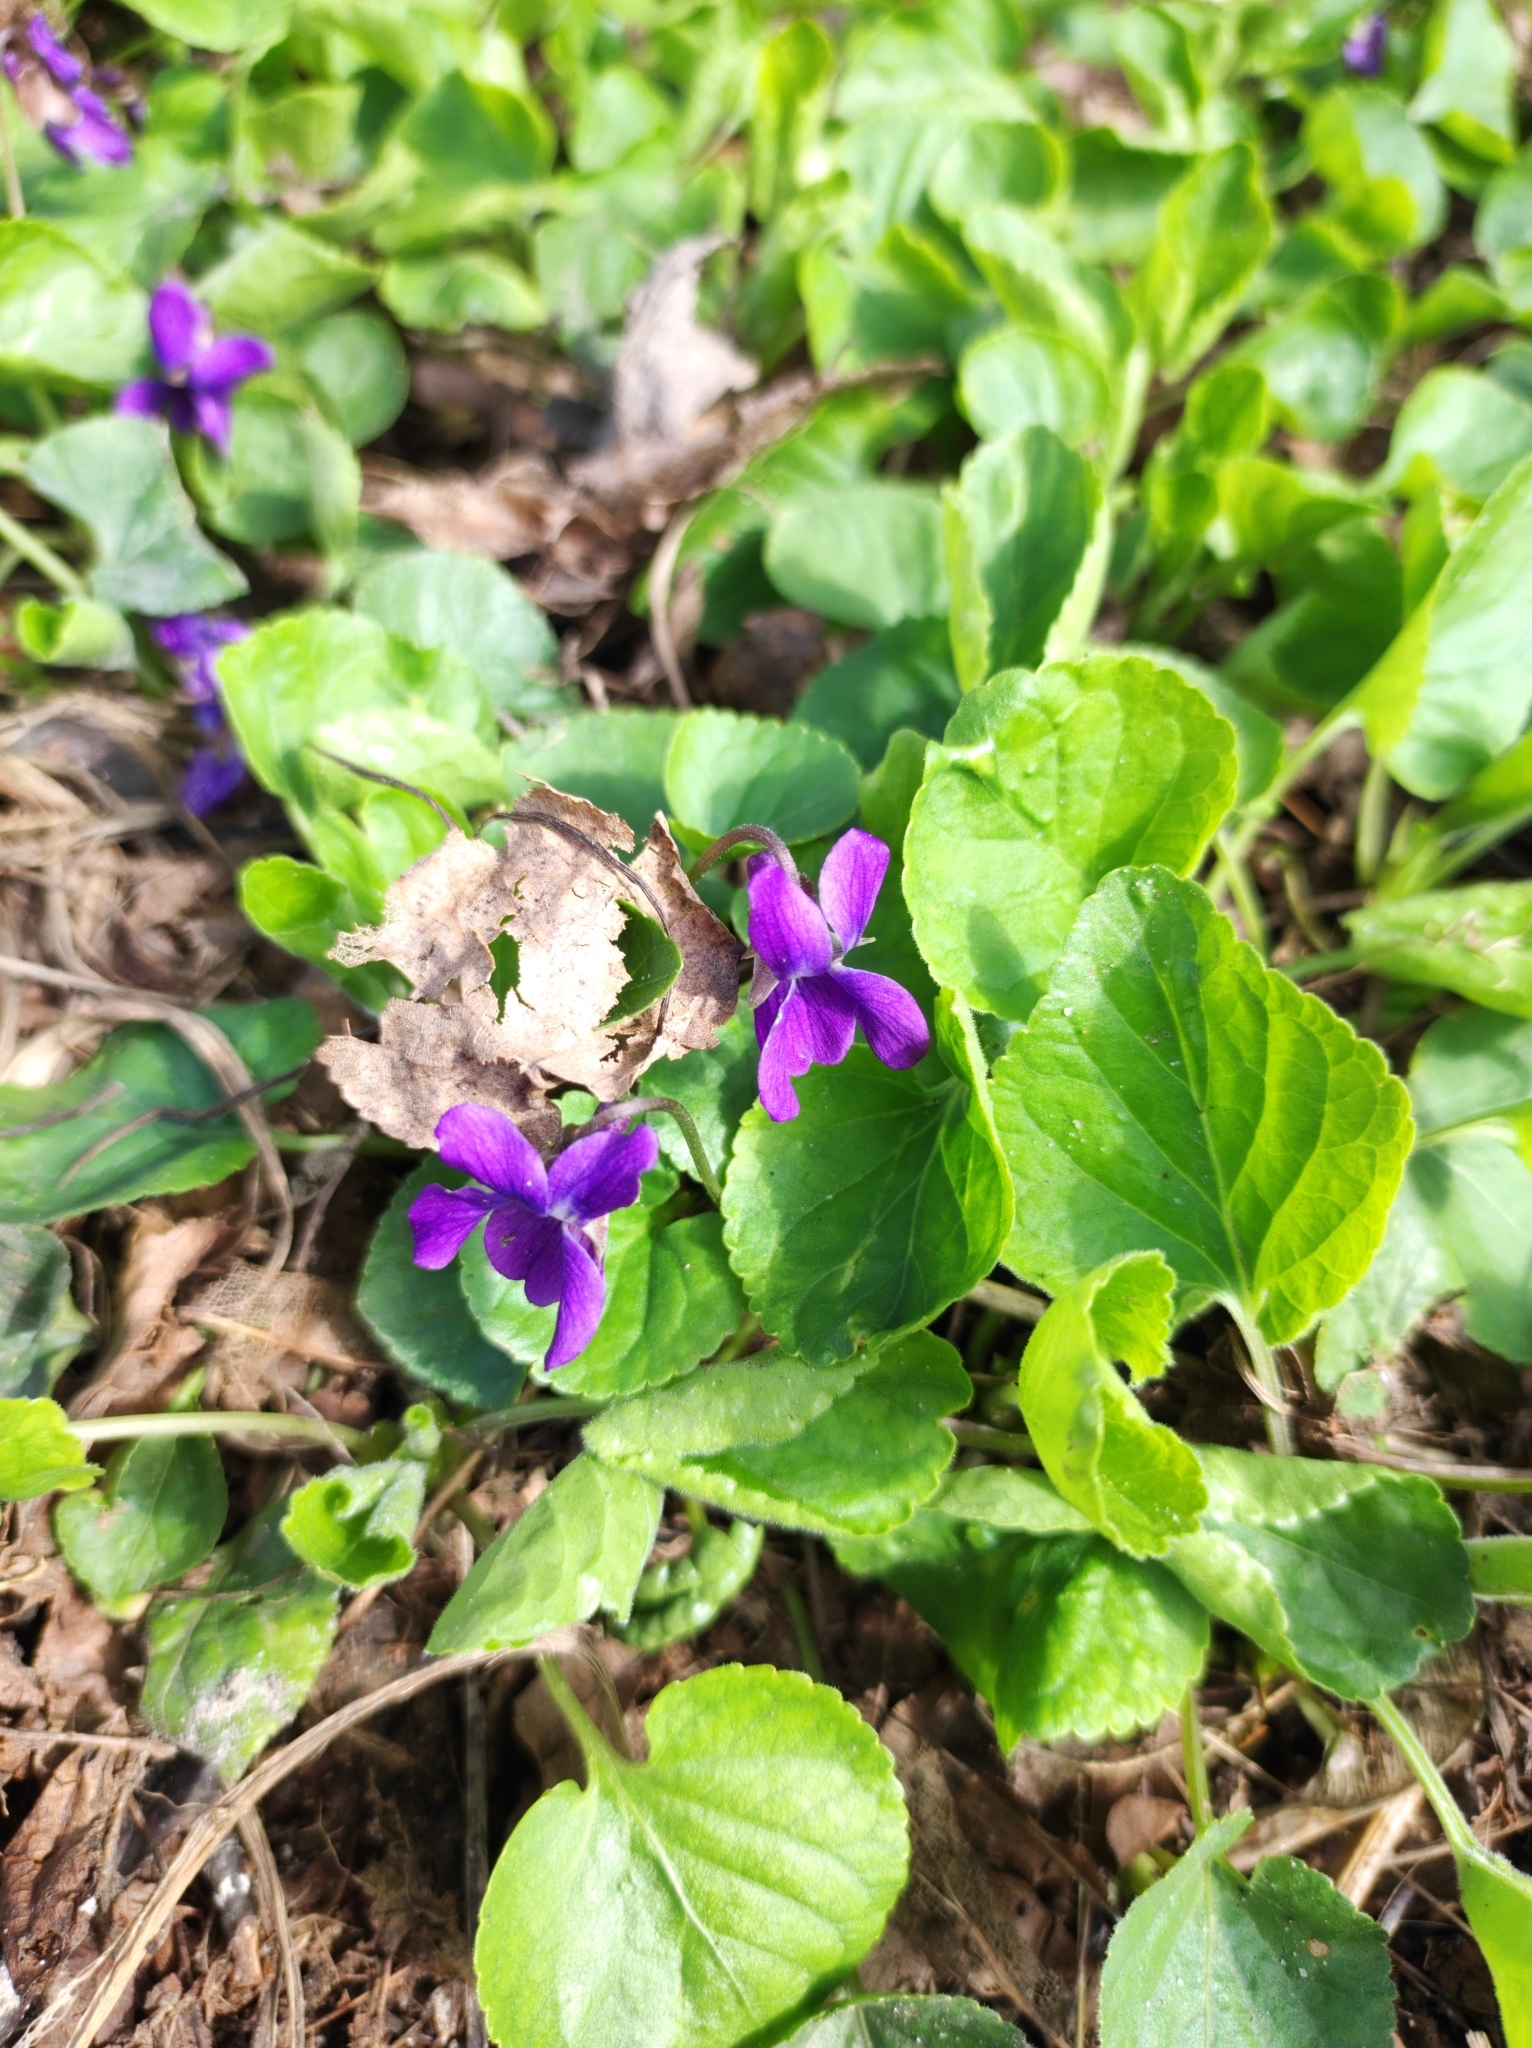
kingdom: Plantae
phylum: Tracheophyta
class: Magnoliopsida
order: Malpighiales
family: Violaceae
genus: Viola
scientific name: Viola odorata
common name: Sweet violet
